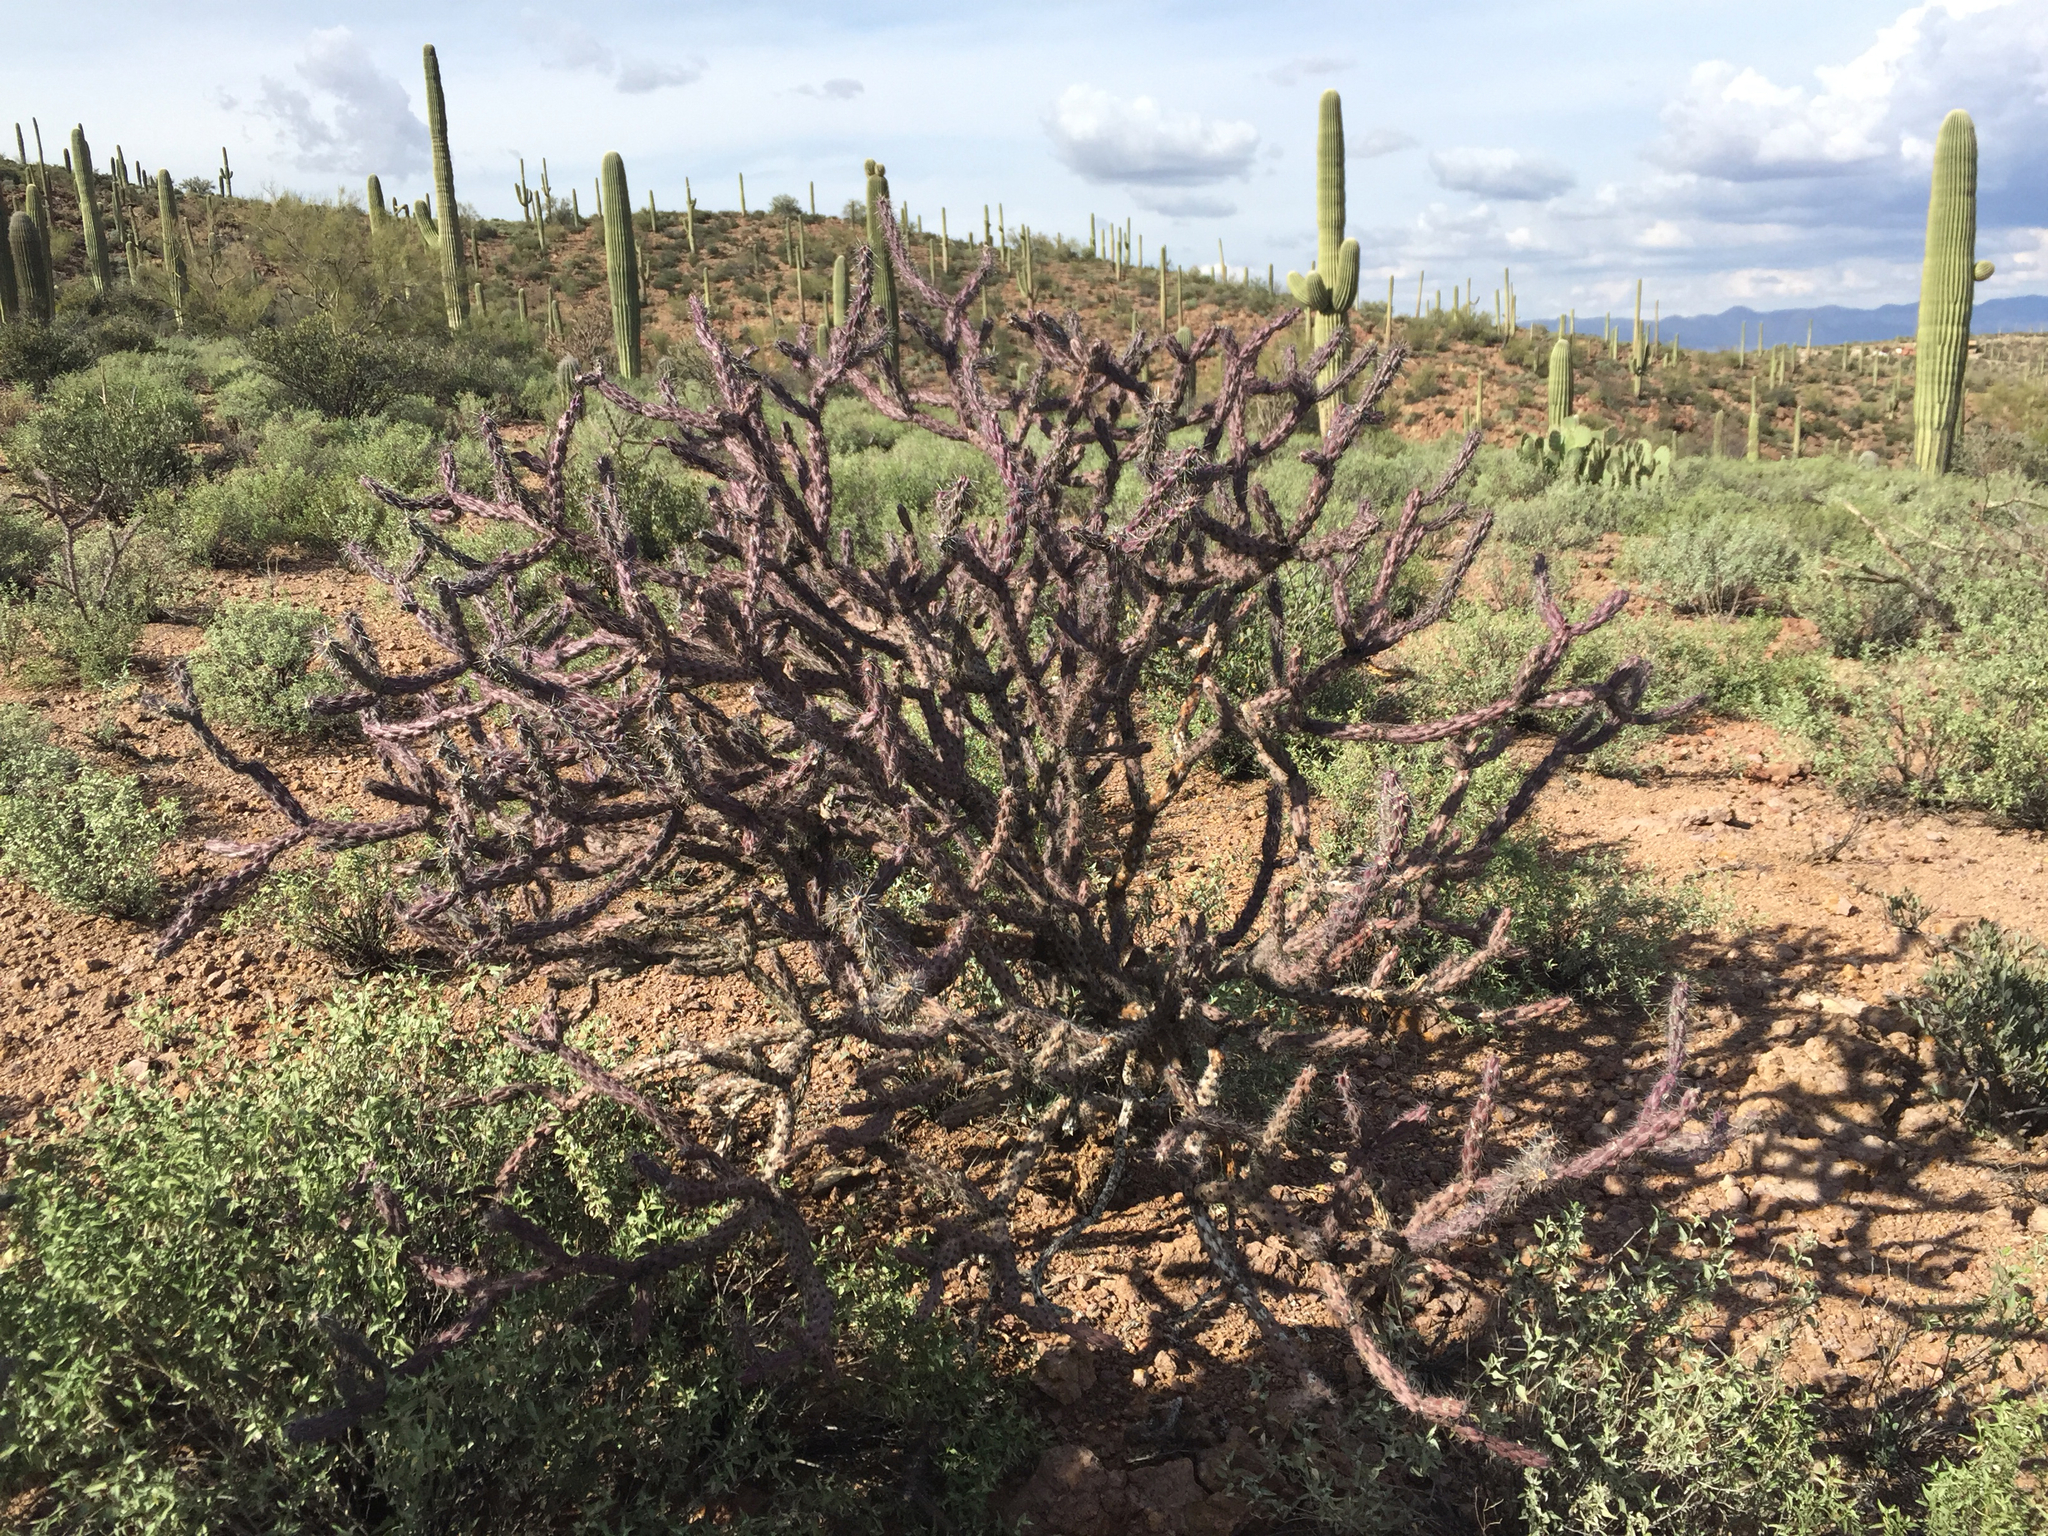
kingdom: Plantae
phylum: Tracheophyta
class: Magnoliopsida
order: Caryophyllales
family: Cactaceae
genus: Cylindropuntia
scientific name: Cylindropuntia thurberi
